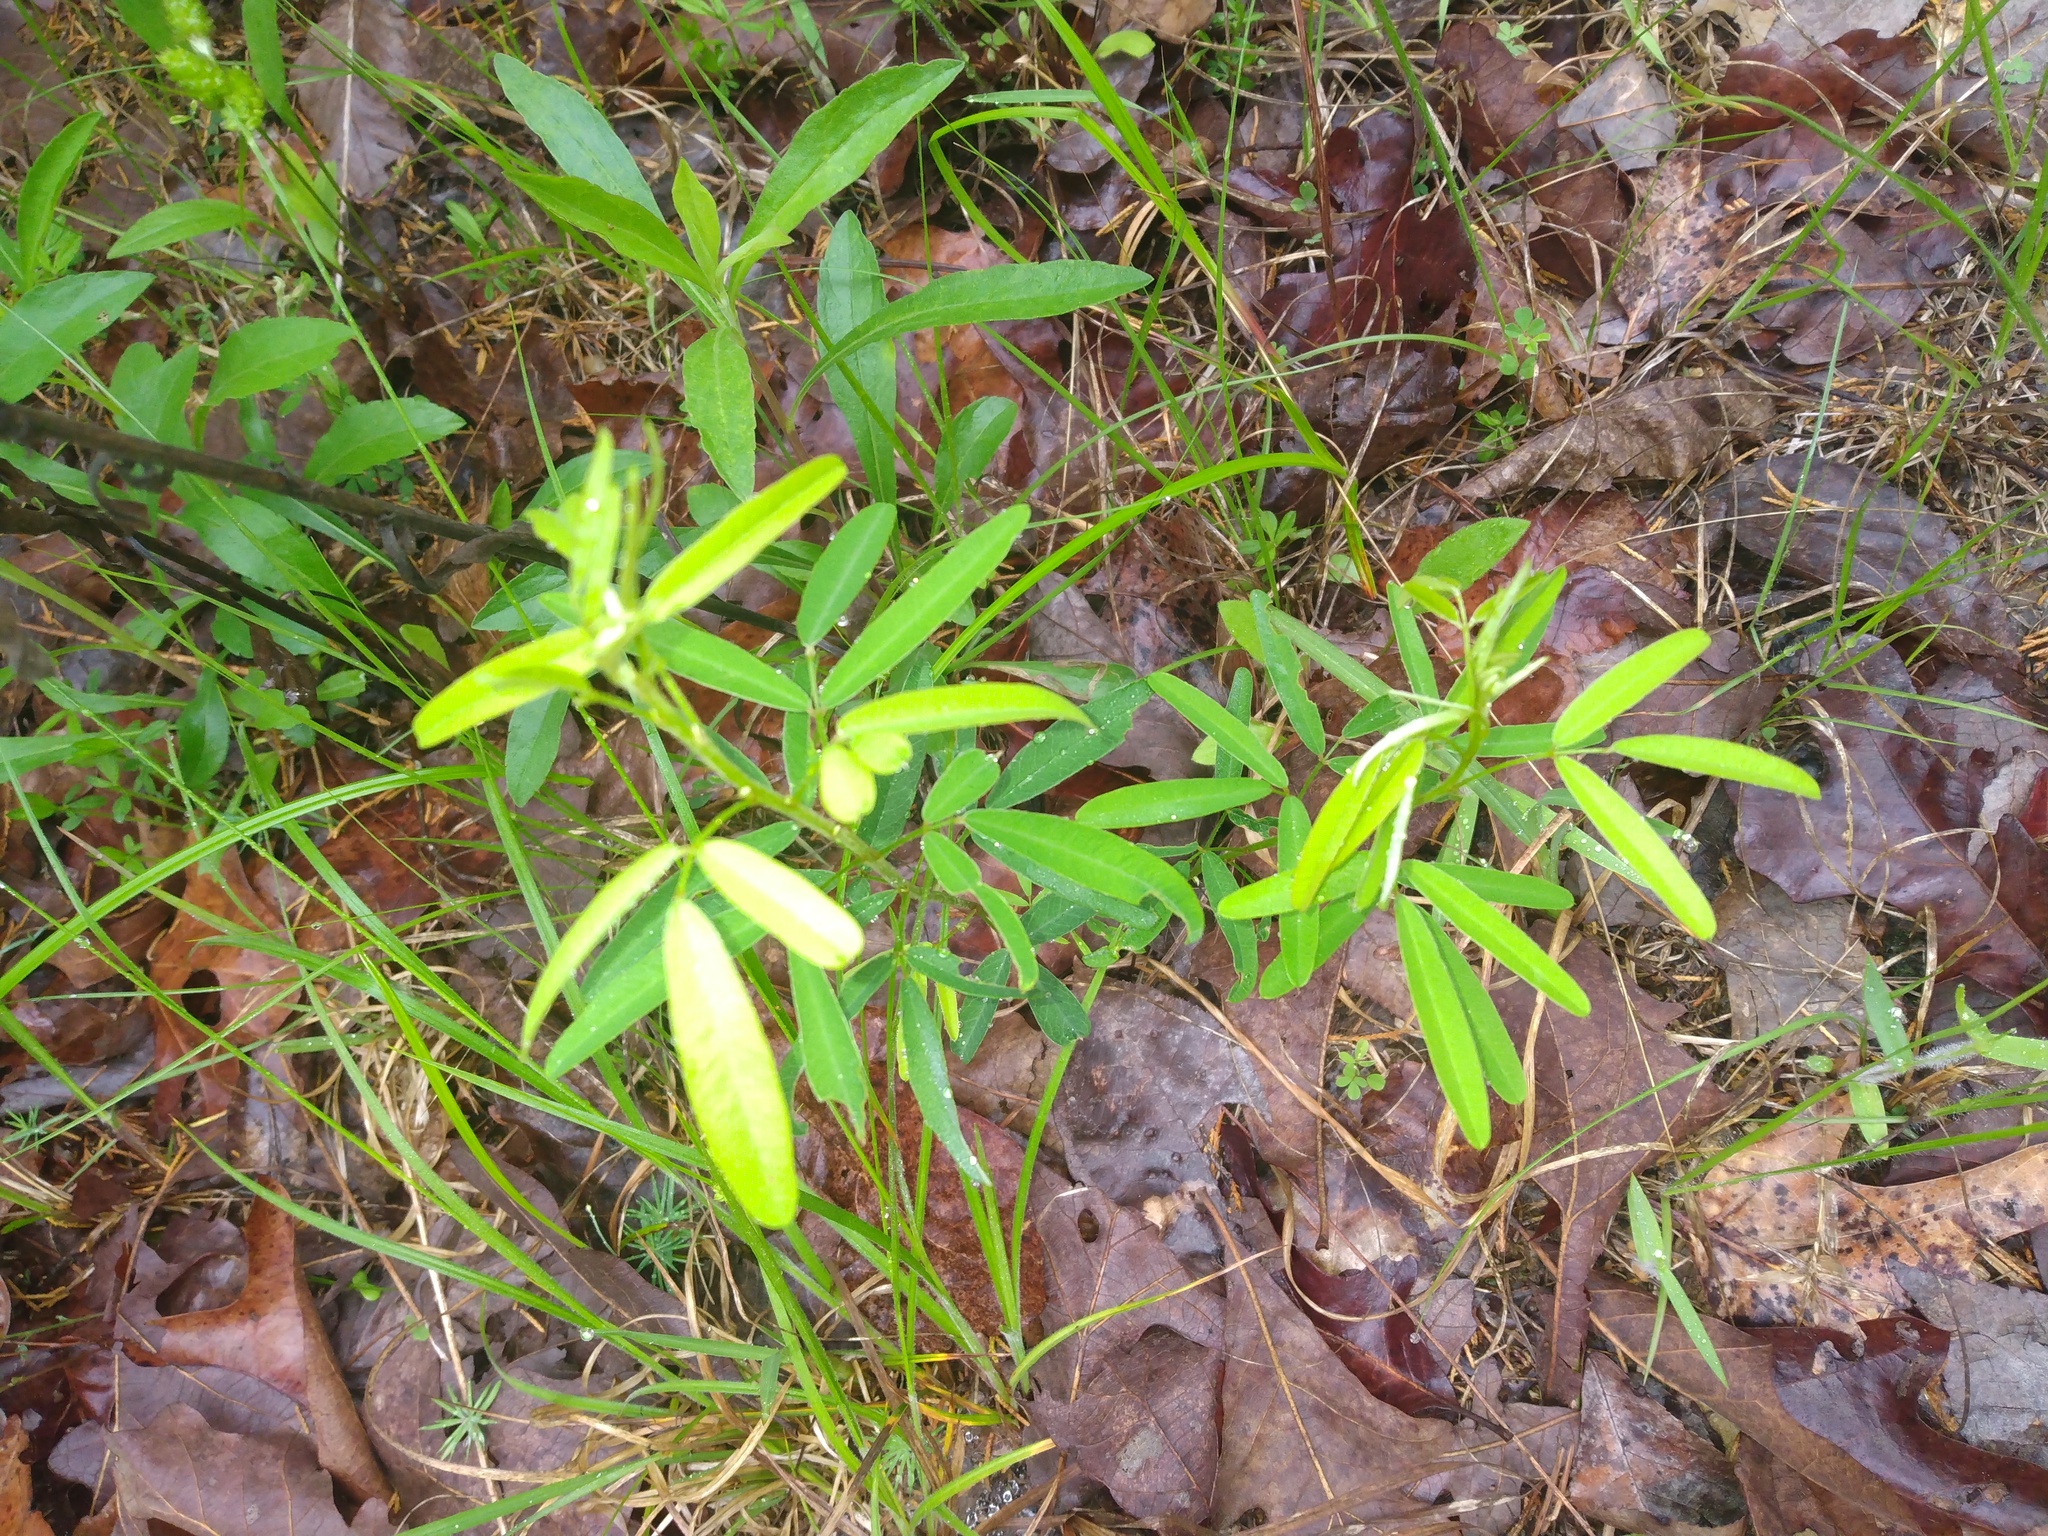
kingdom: Plantae
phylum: Tracheophyta
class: Magnoliopsida
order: Fabales
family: Fabaceae
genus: Lespedeza
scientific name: Lespedeza virginica
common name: Slender bush-clover
